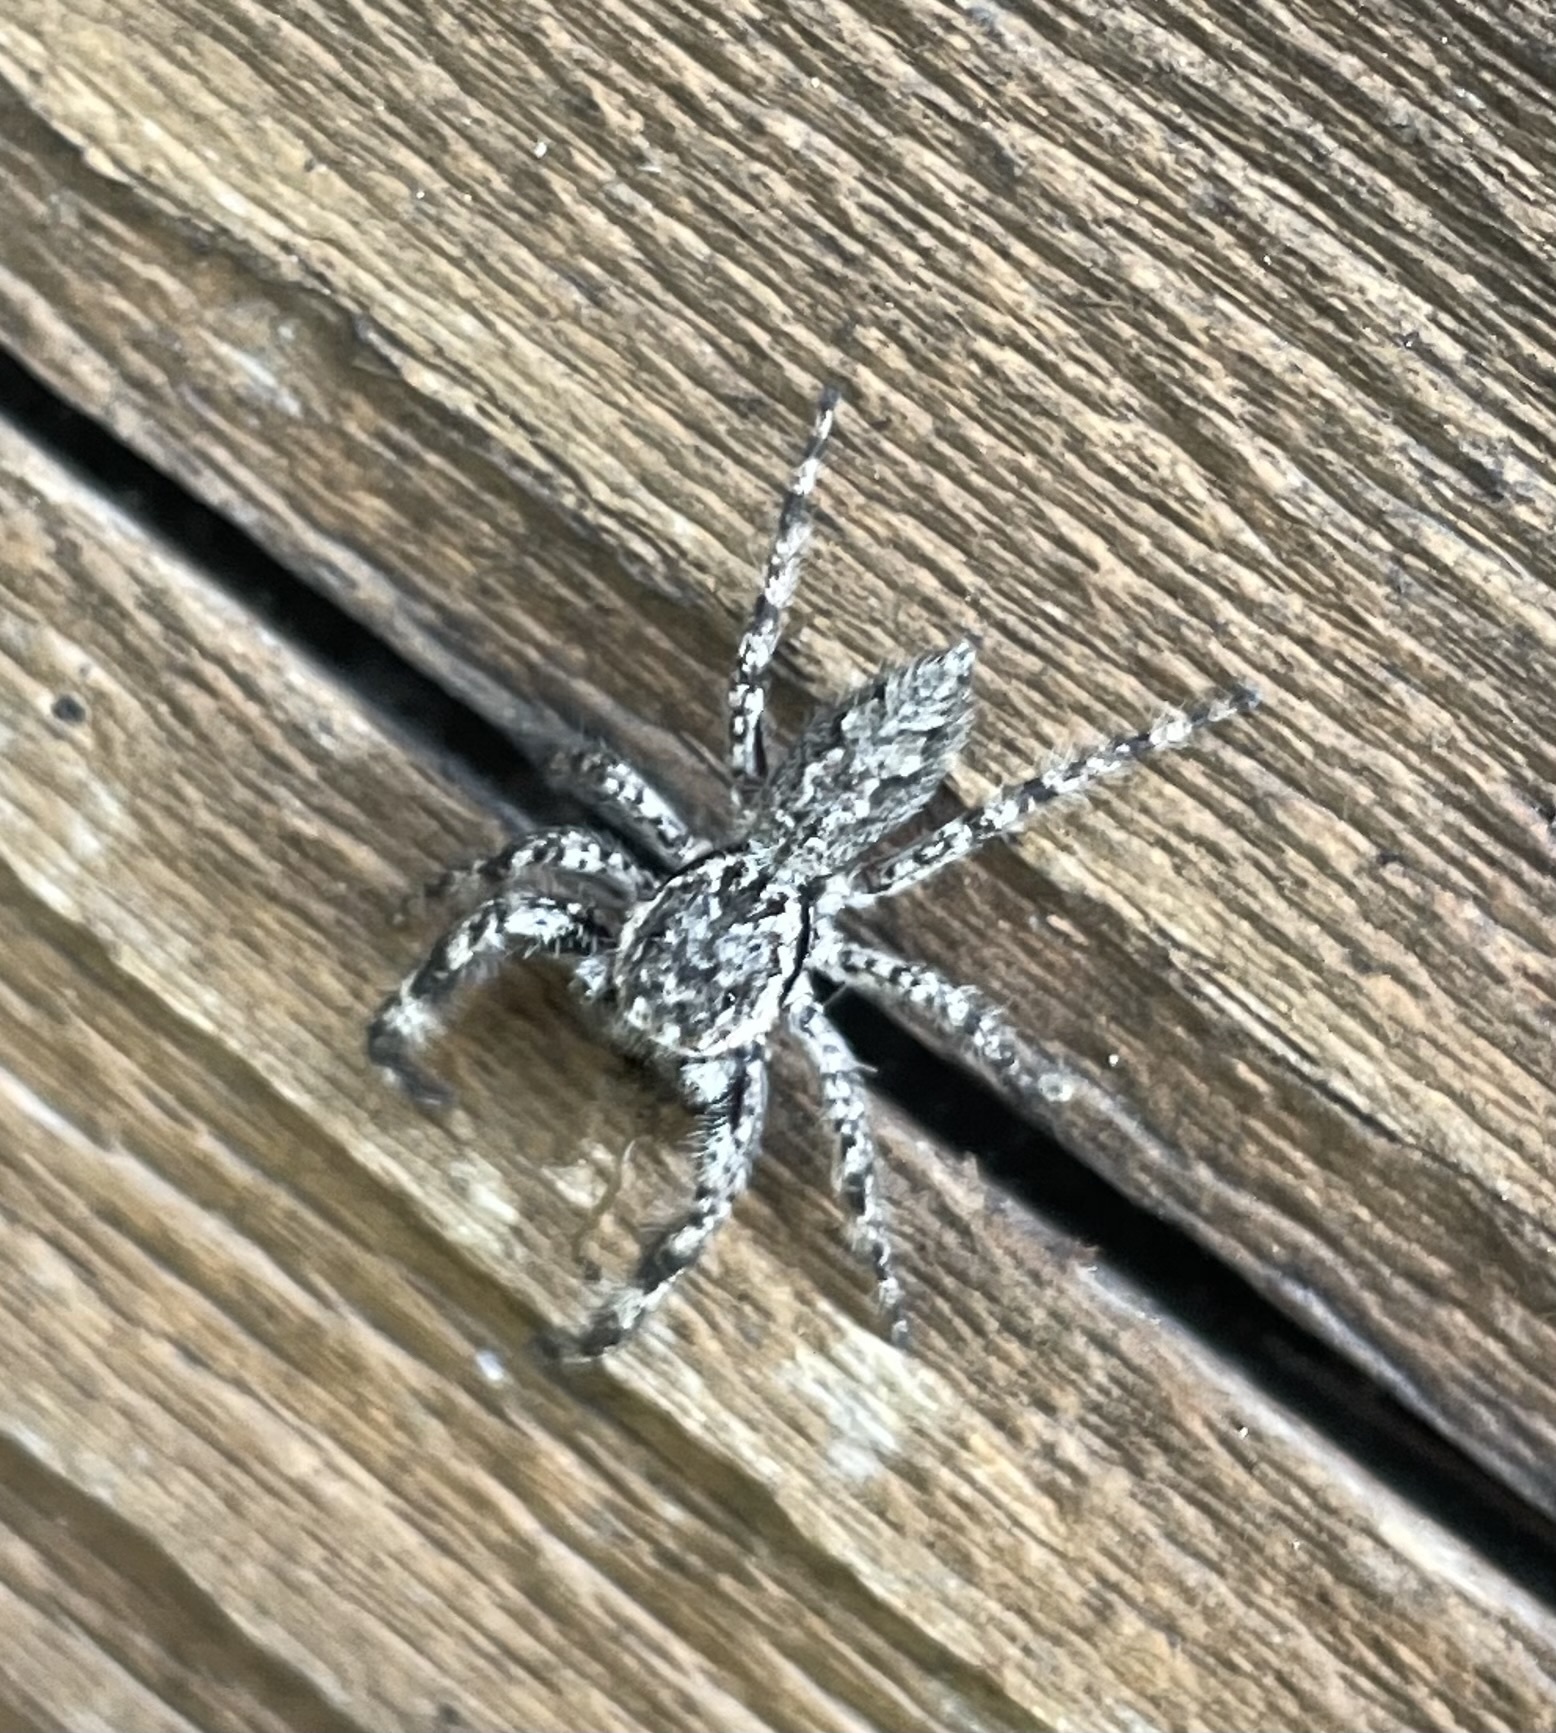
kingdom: Animalia
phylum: Arthropoda
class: Arachnida
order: Araneae
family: Salticidae
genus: Platycryptus
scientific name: Platycryptus undatus
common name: Tan jumping spider
